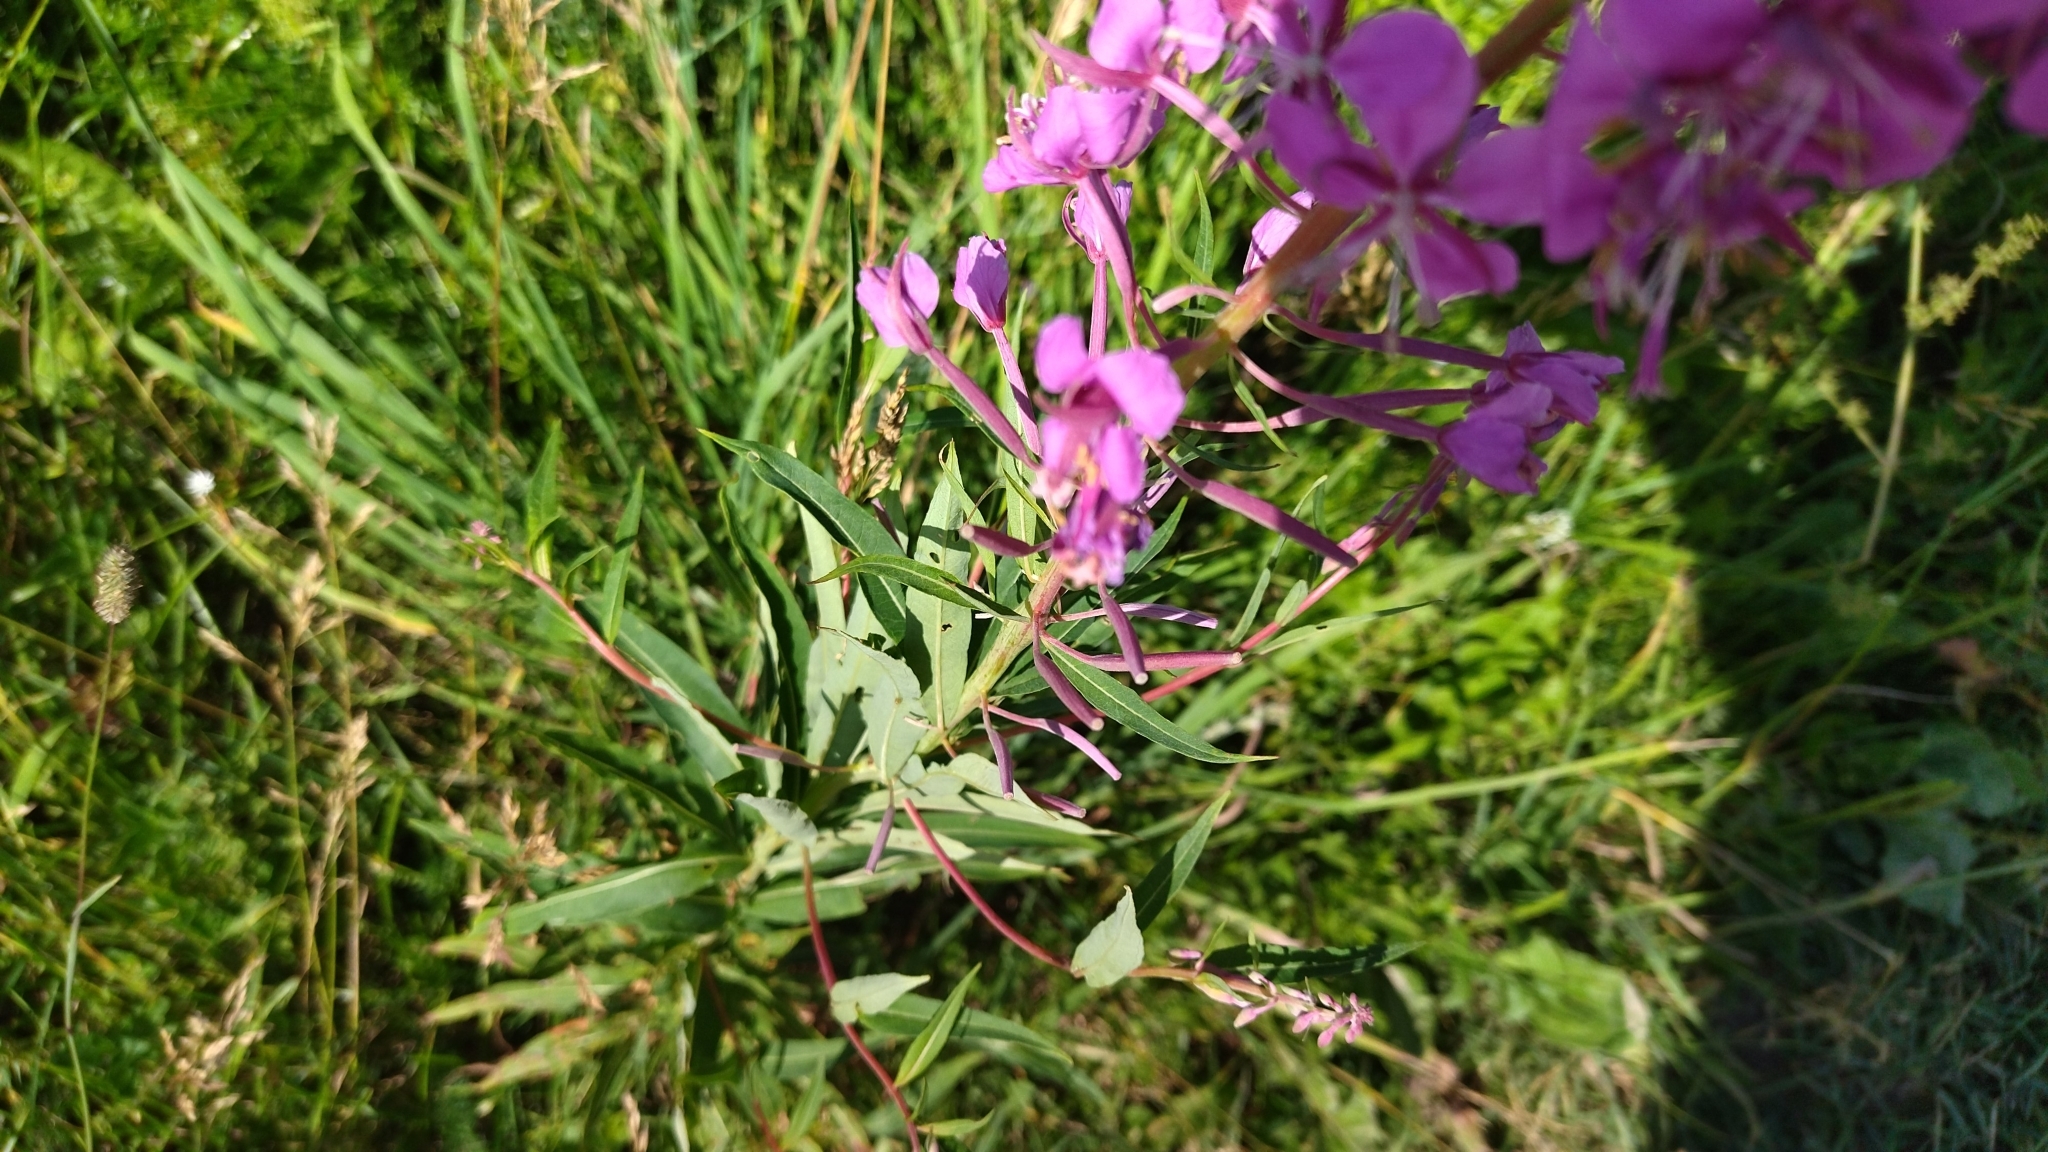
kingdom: Plantae
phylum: Tracheophyta
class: Magnoliopsida
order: Myrtales
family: Onagraceae
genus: Chamaenerion
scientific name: Chamaenerion angustifolium
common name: Fireweed
